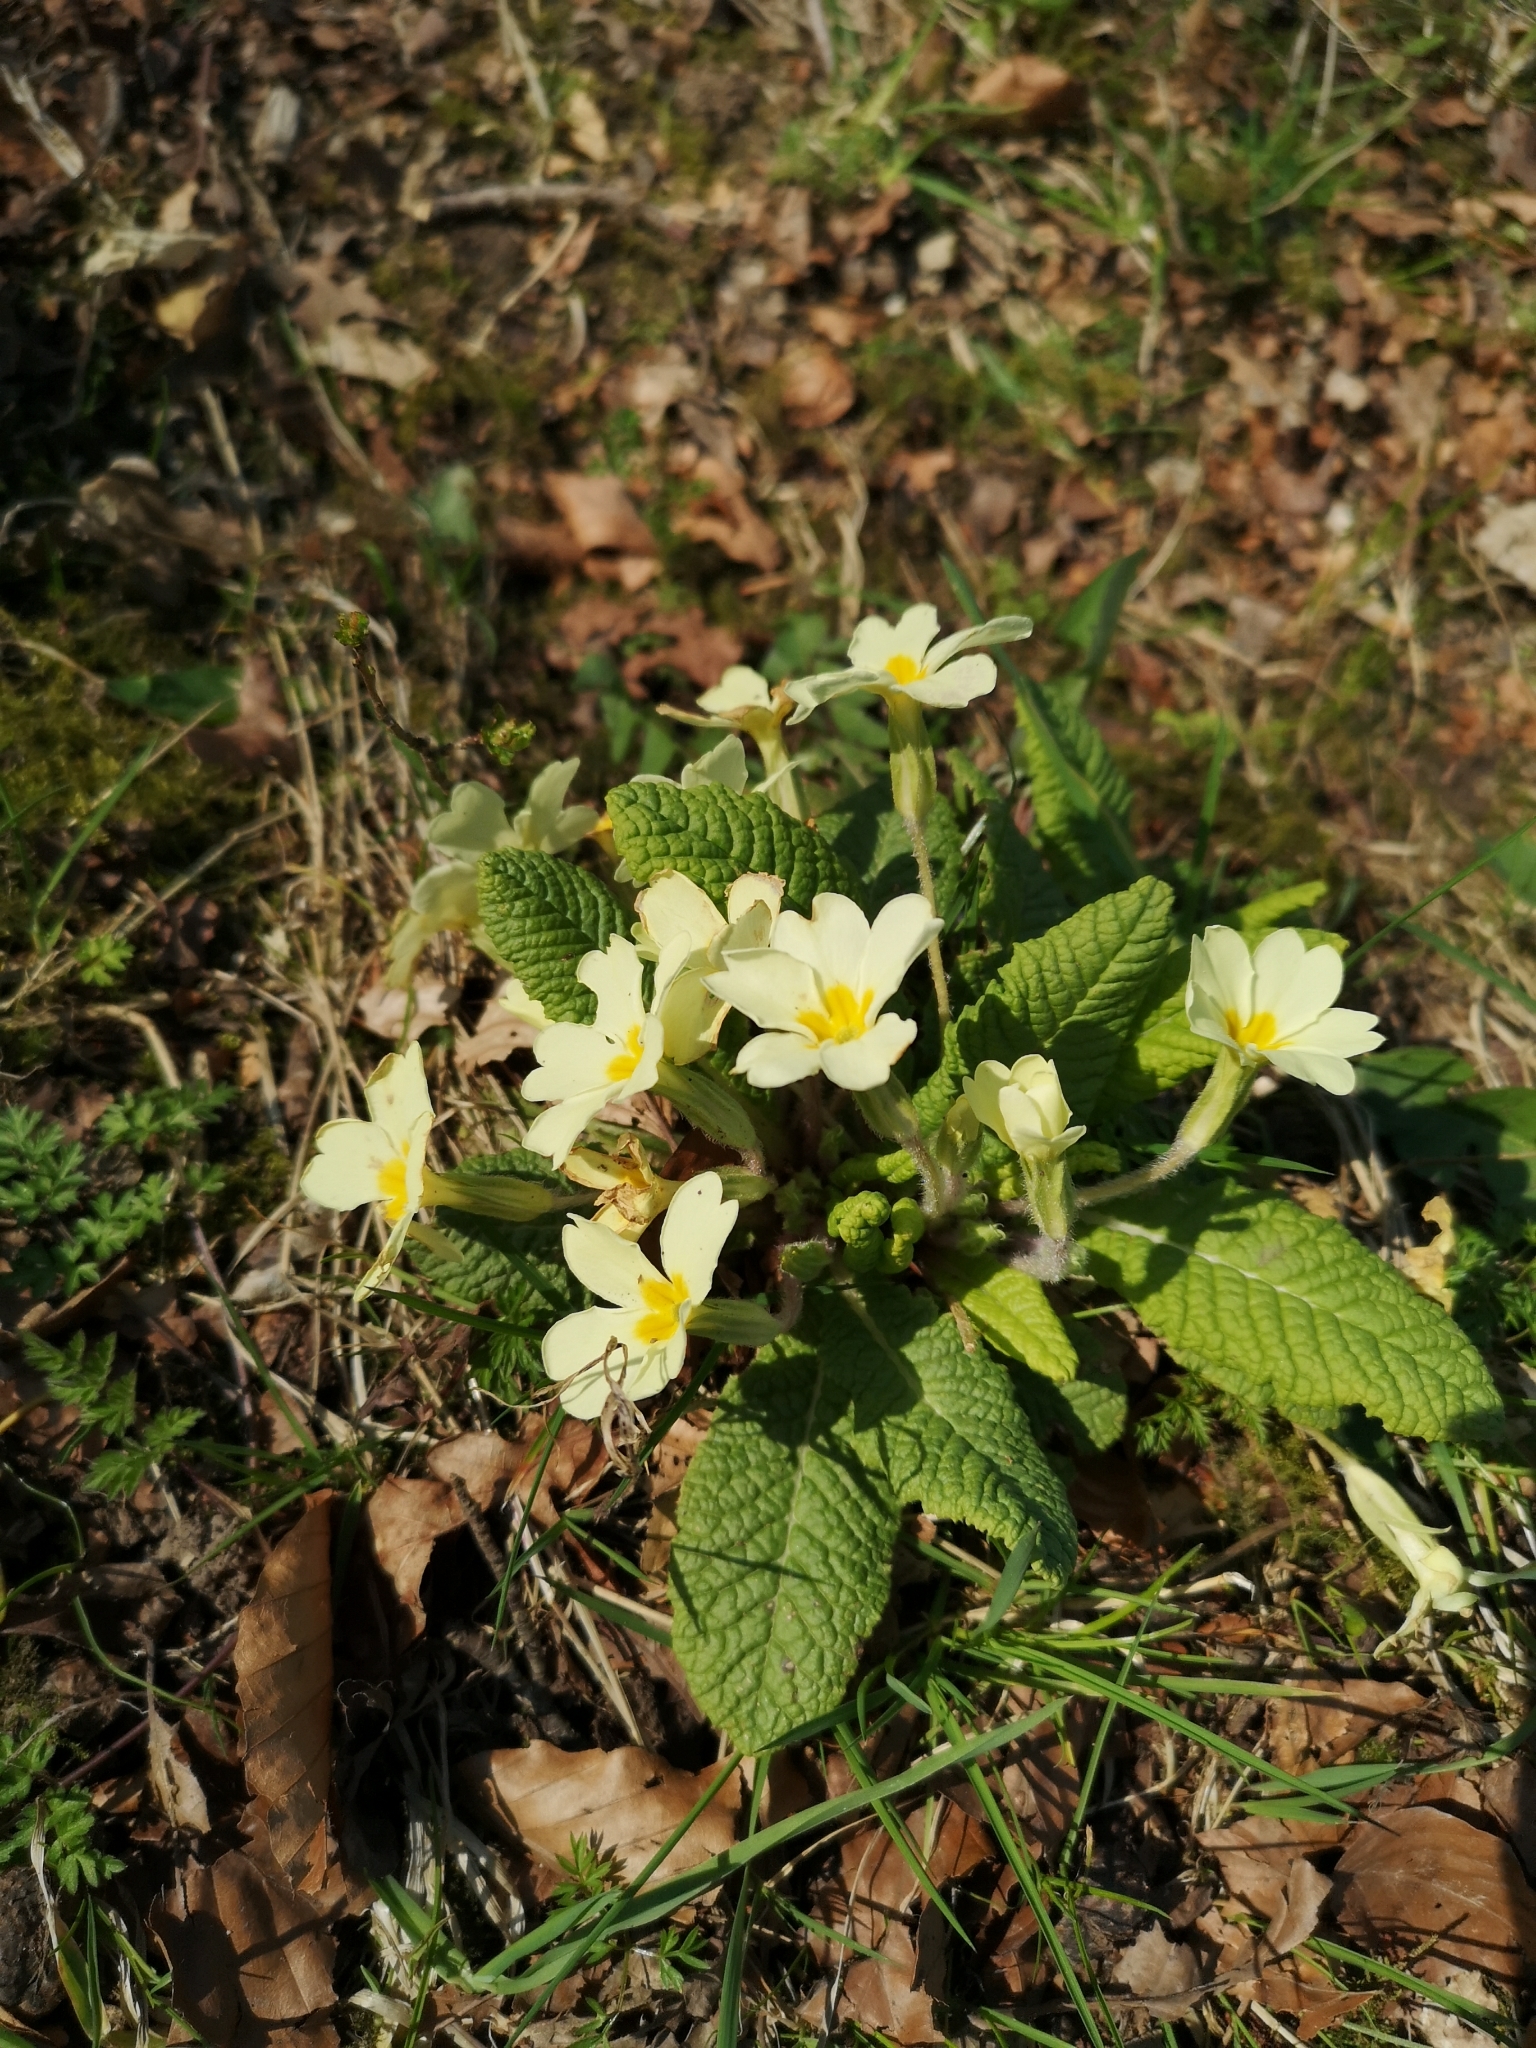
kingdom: Plantae
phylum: Tracheophyta
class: Magnoliopsida
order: Ericales
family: Primulaceae
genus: Primula
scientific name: Primula vulgaris
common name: Primrose
